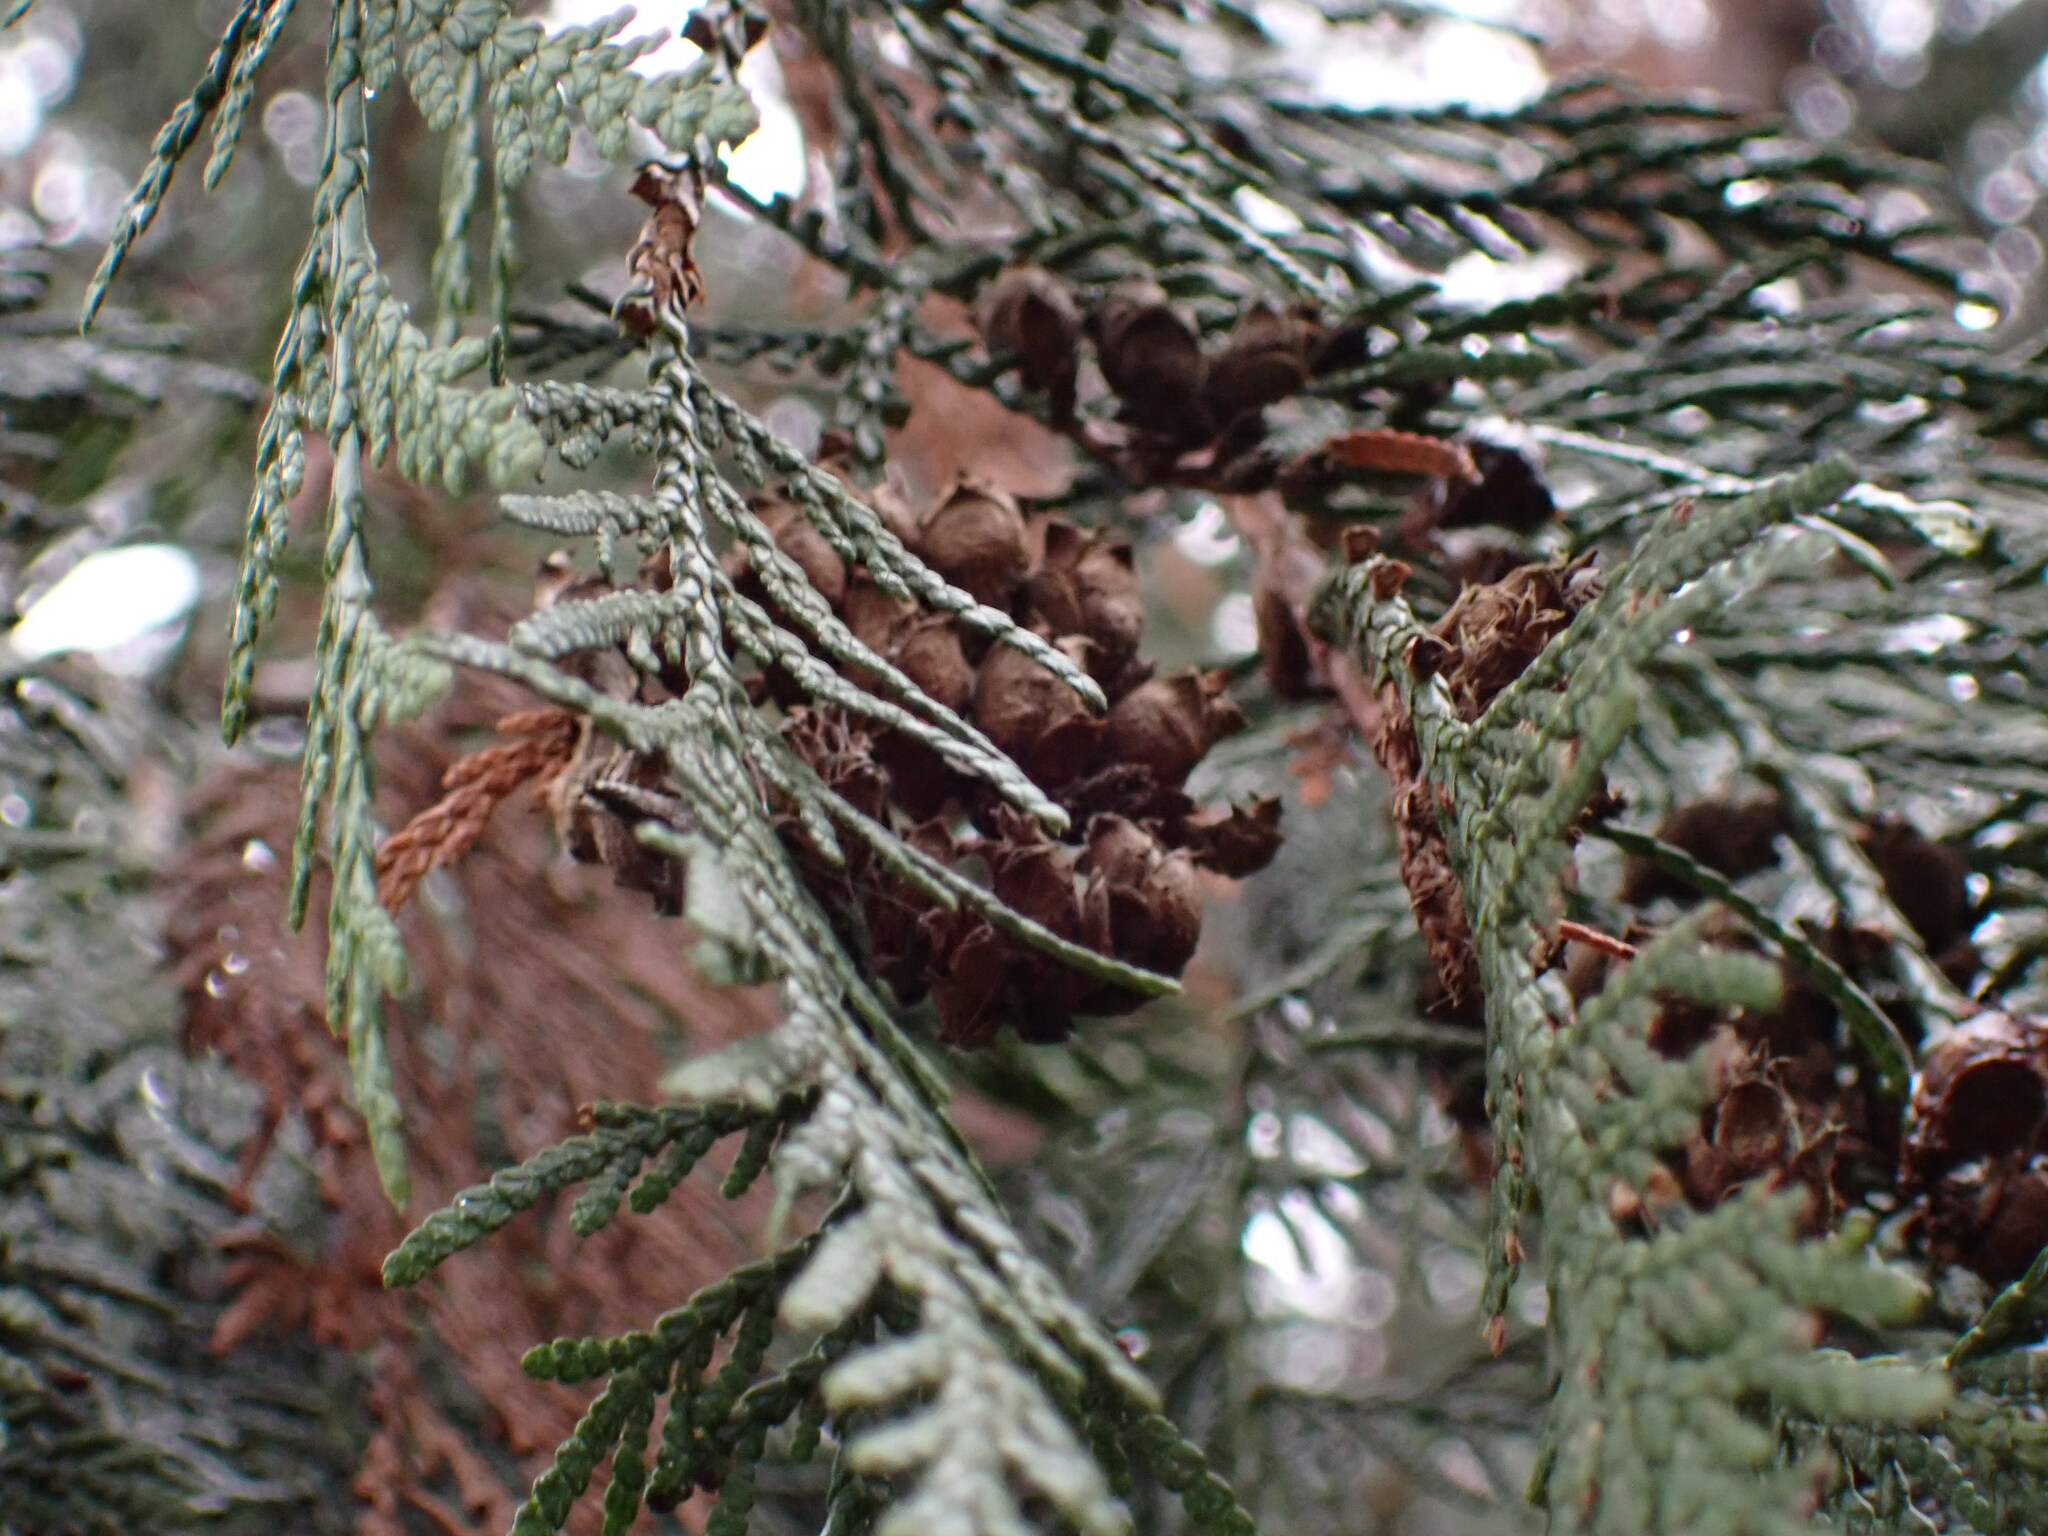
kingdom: Plantae
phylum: Tracheophyta
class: Pinopsida
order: Pinales
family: Cupressaceae
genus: Thuja
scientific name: Thuja plicata
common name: Western red-cedar
